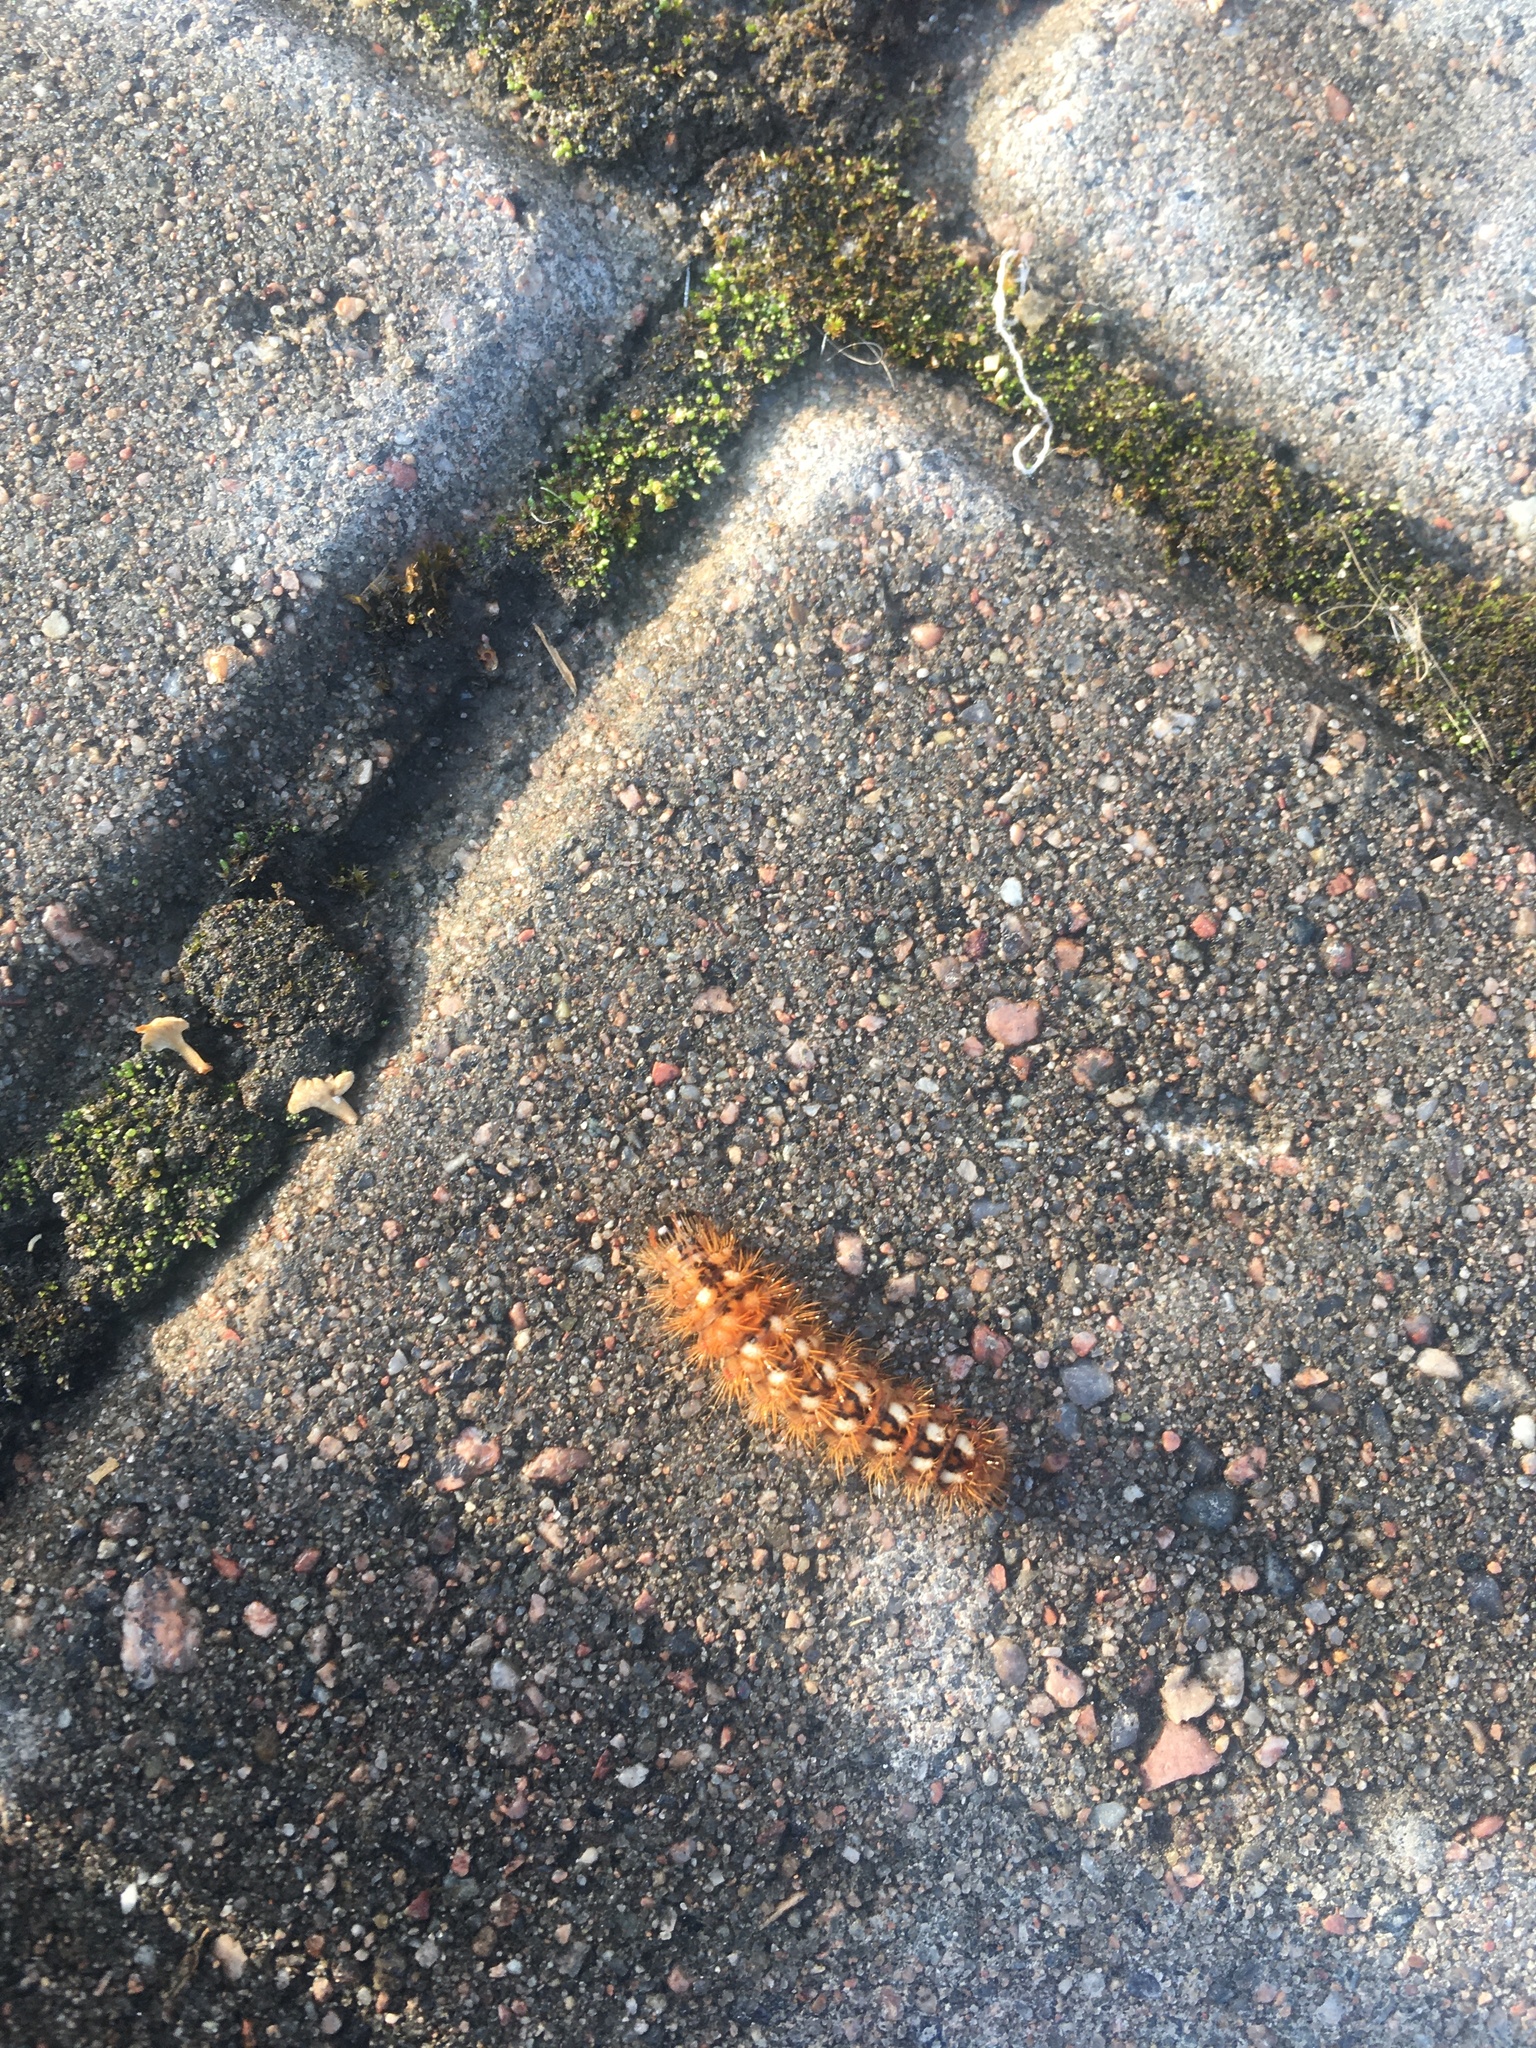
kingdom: Animalia
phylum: Arthropoda
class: Insecta
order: Lepidoptera
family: Noctuidae
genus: Acronicta
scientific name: Acronicta rumicis
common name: Knot grass
